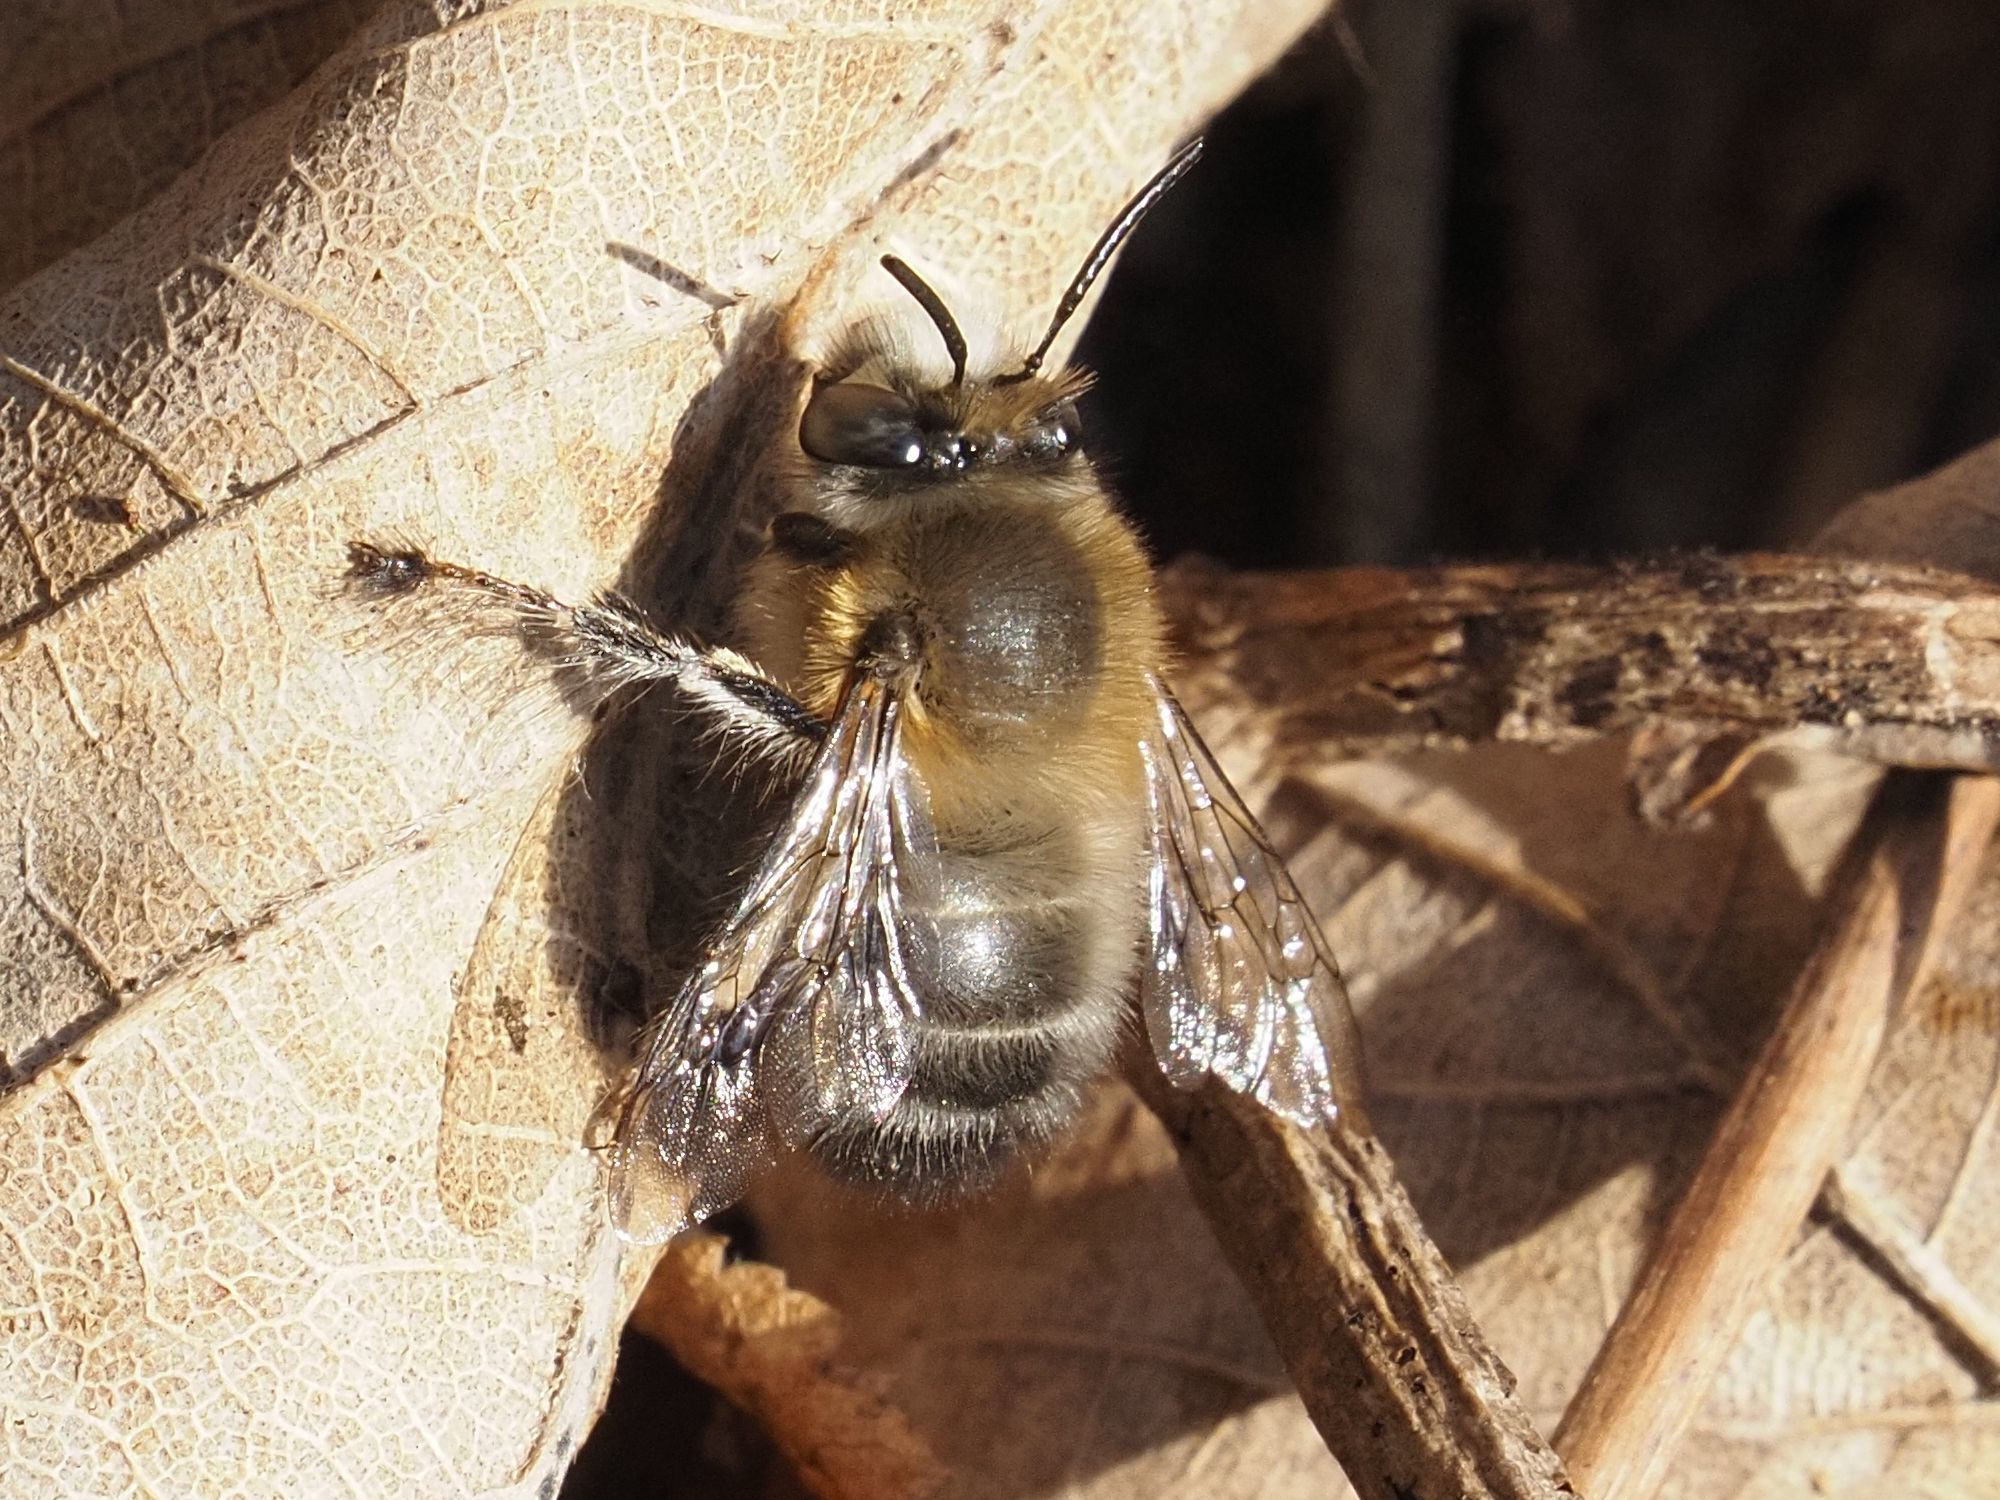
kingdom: Animalia
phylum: Arthropoda
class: Insecta
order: Hymenoptera
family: Apidae
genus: Anthophora
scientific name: Anthophora plumipes
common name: Hairy-footed flower bee
